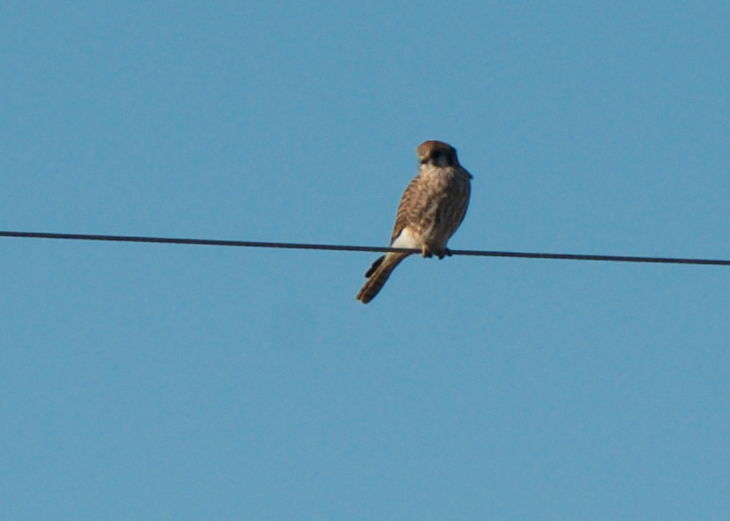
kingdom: Animalia
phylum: Chordata
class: Aves
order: Falconiformes
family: Falconidae
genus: Falco
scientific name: Falco sparverius
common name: American kestrel
